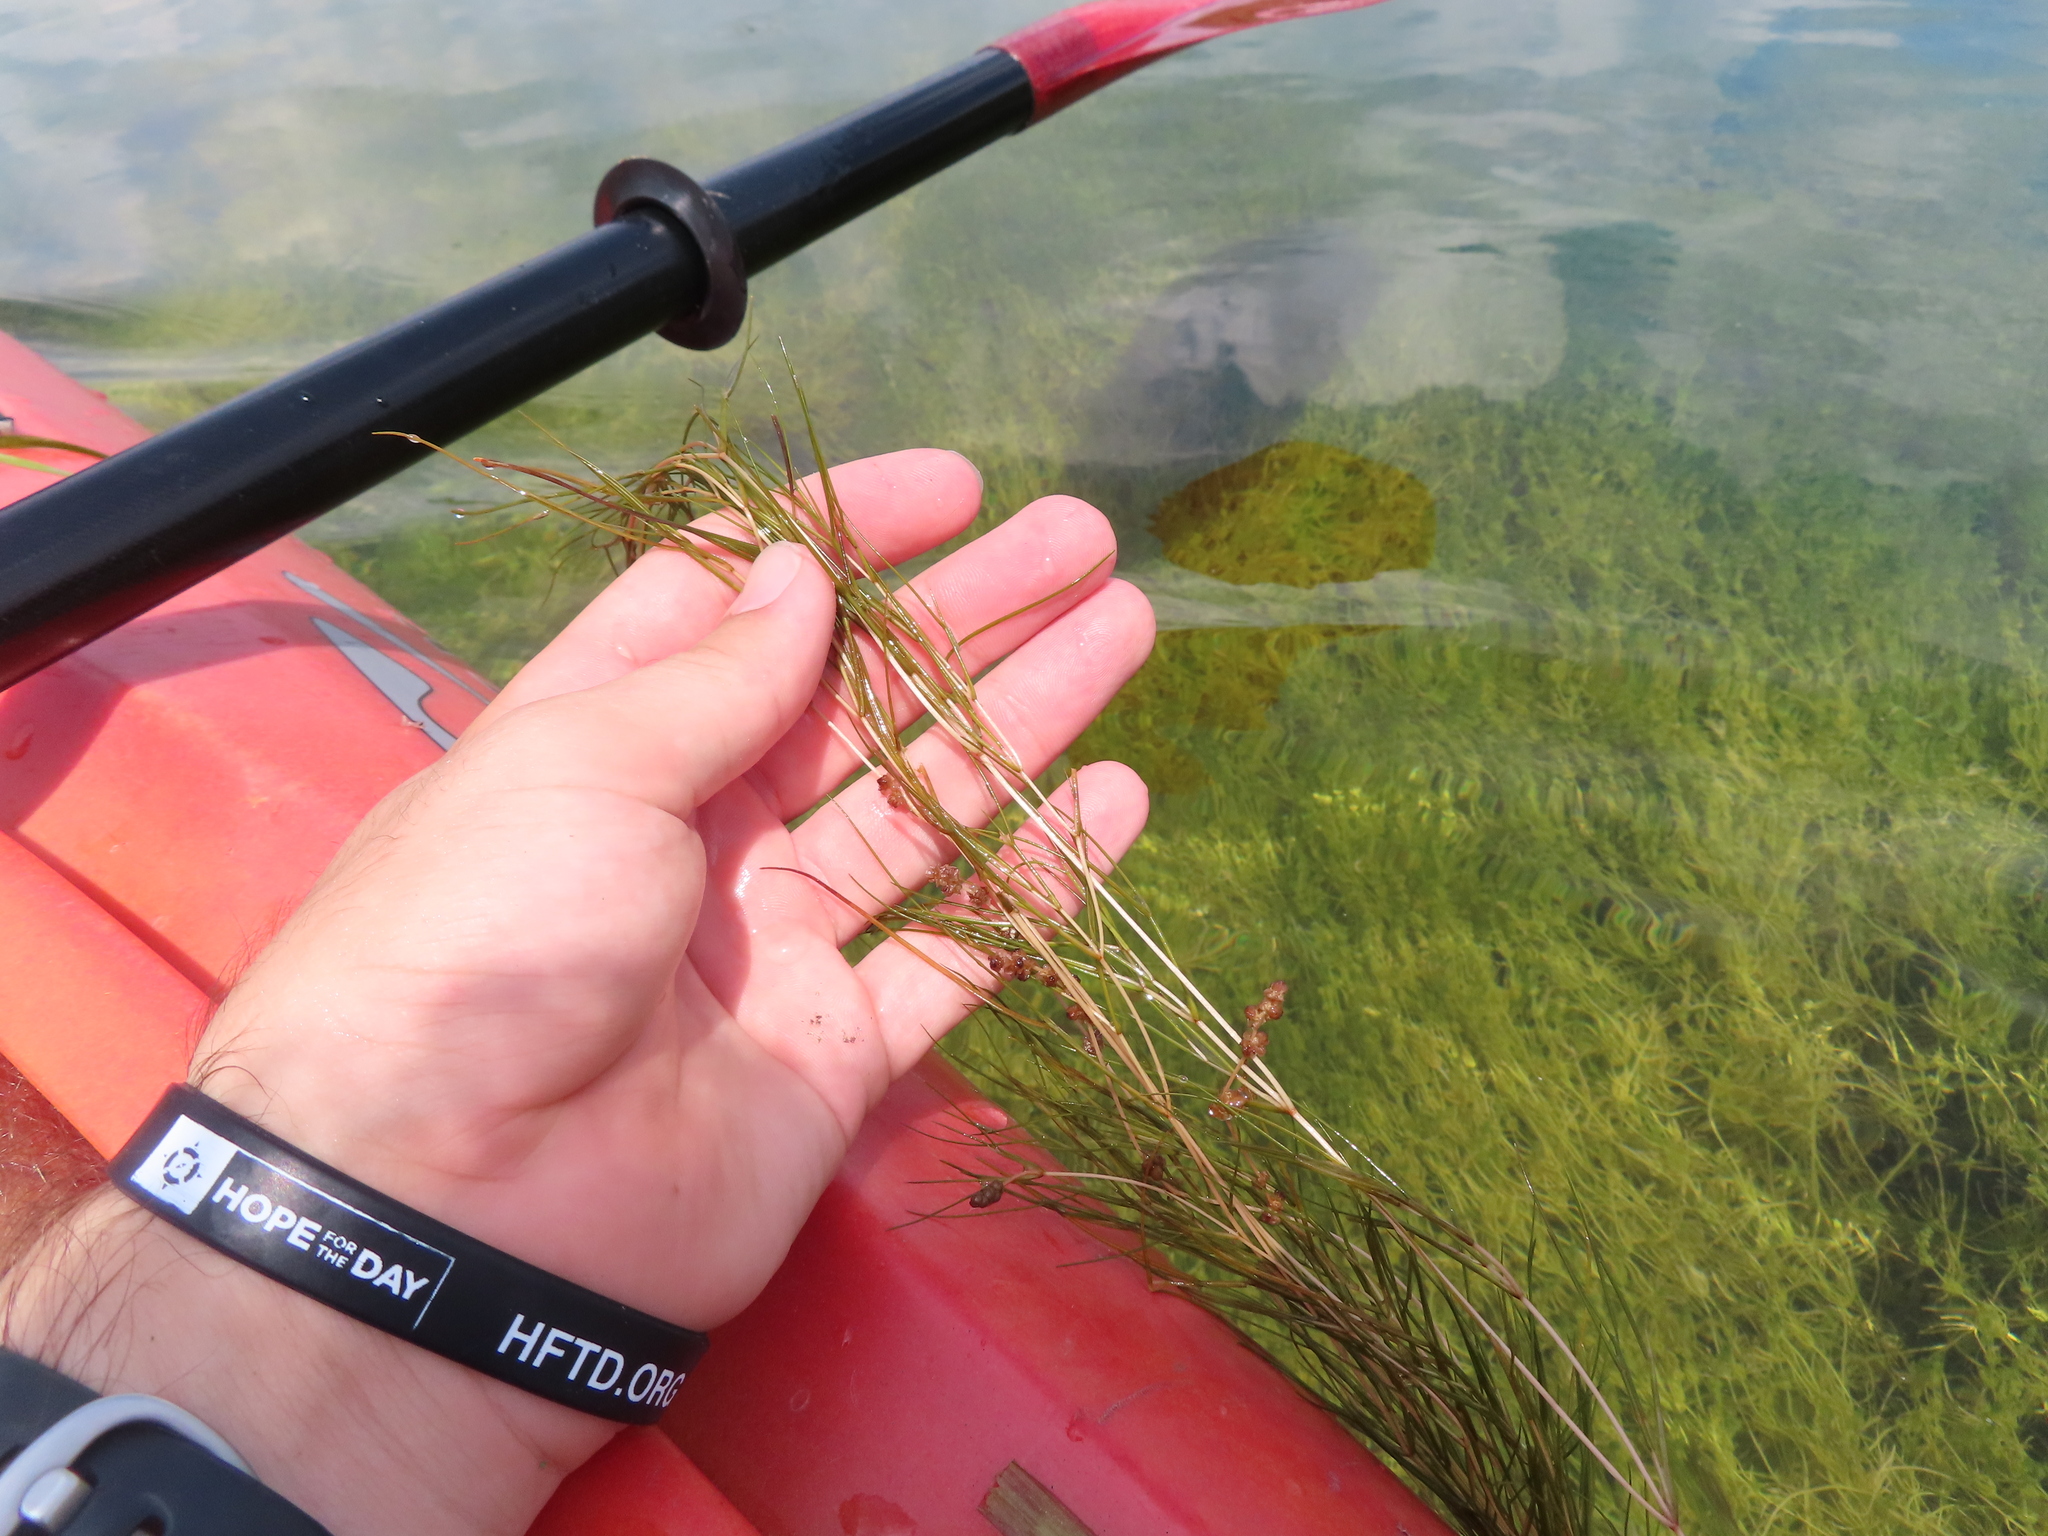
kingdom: Plantae
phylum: Tracheophyta
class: Liliopsida
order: Alismatales
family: Potamogetonaceae
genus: Stuckenia
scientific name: Stuckenia pectinata
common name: Sago pondweed
